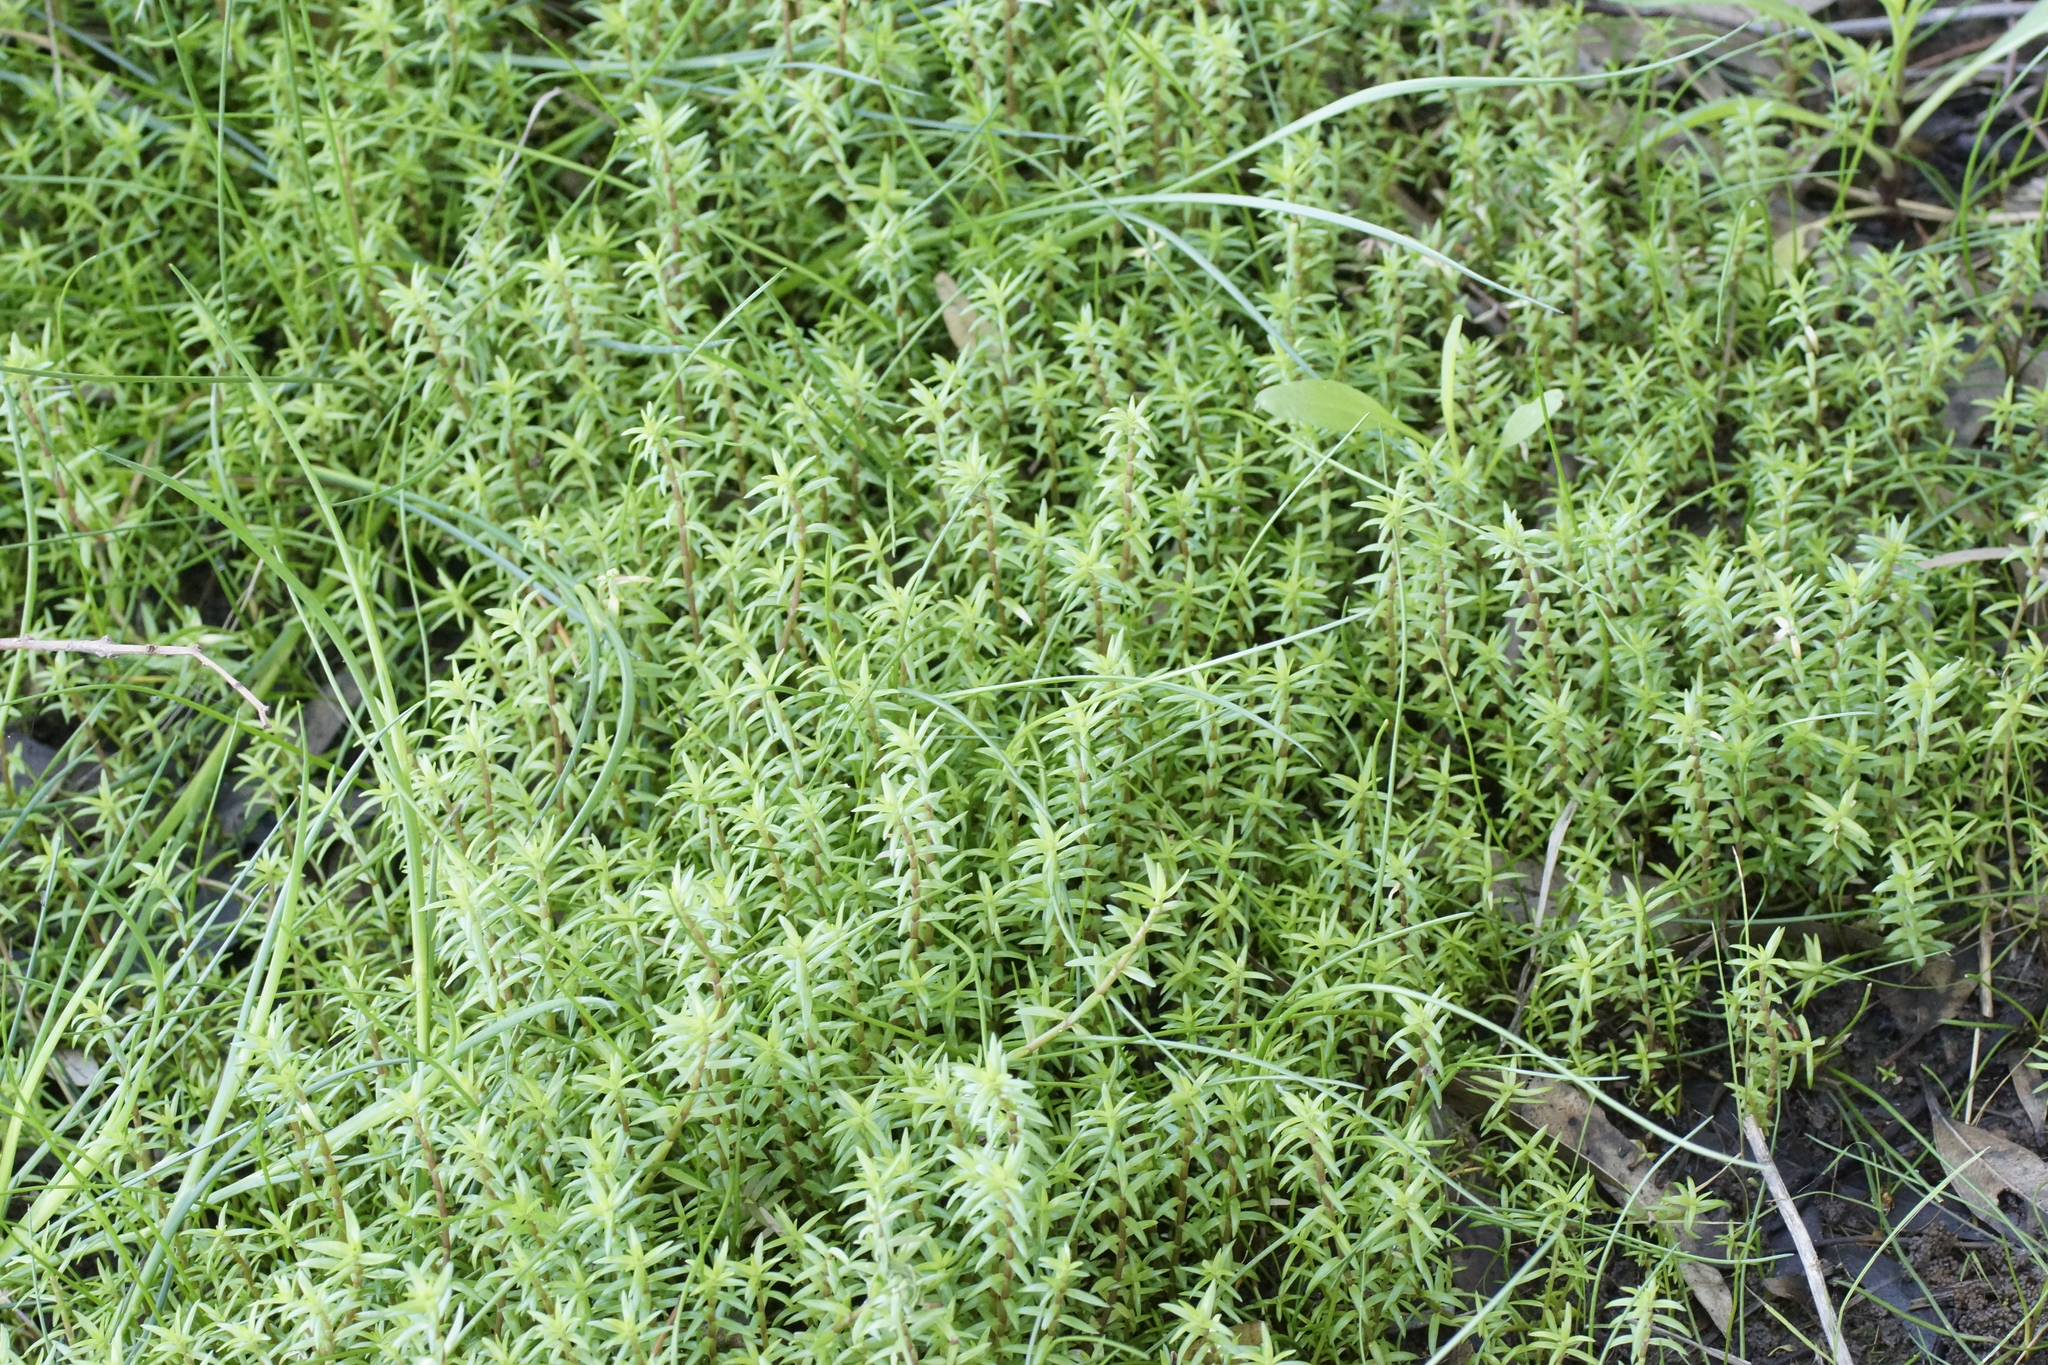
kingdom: Plantae
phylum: Tracheophyta
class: Magnoliopsida
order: Saxifragales
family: Crassulaceae
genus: Crassula
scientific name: Crassula helmsii
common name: New zealand pigmyweed
